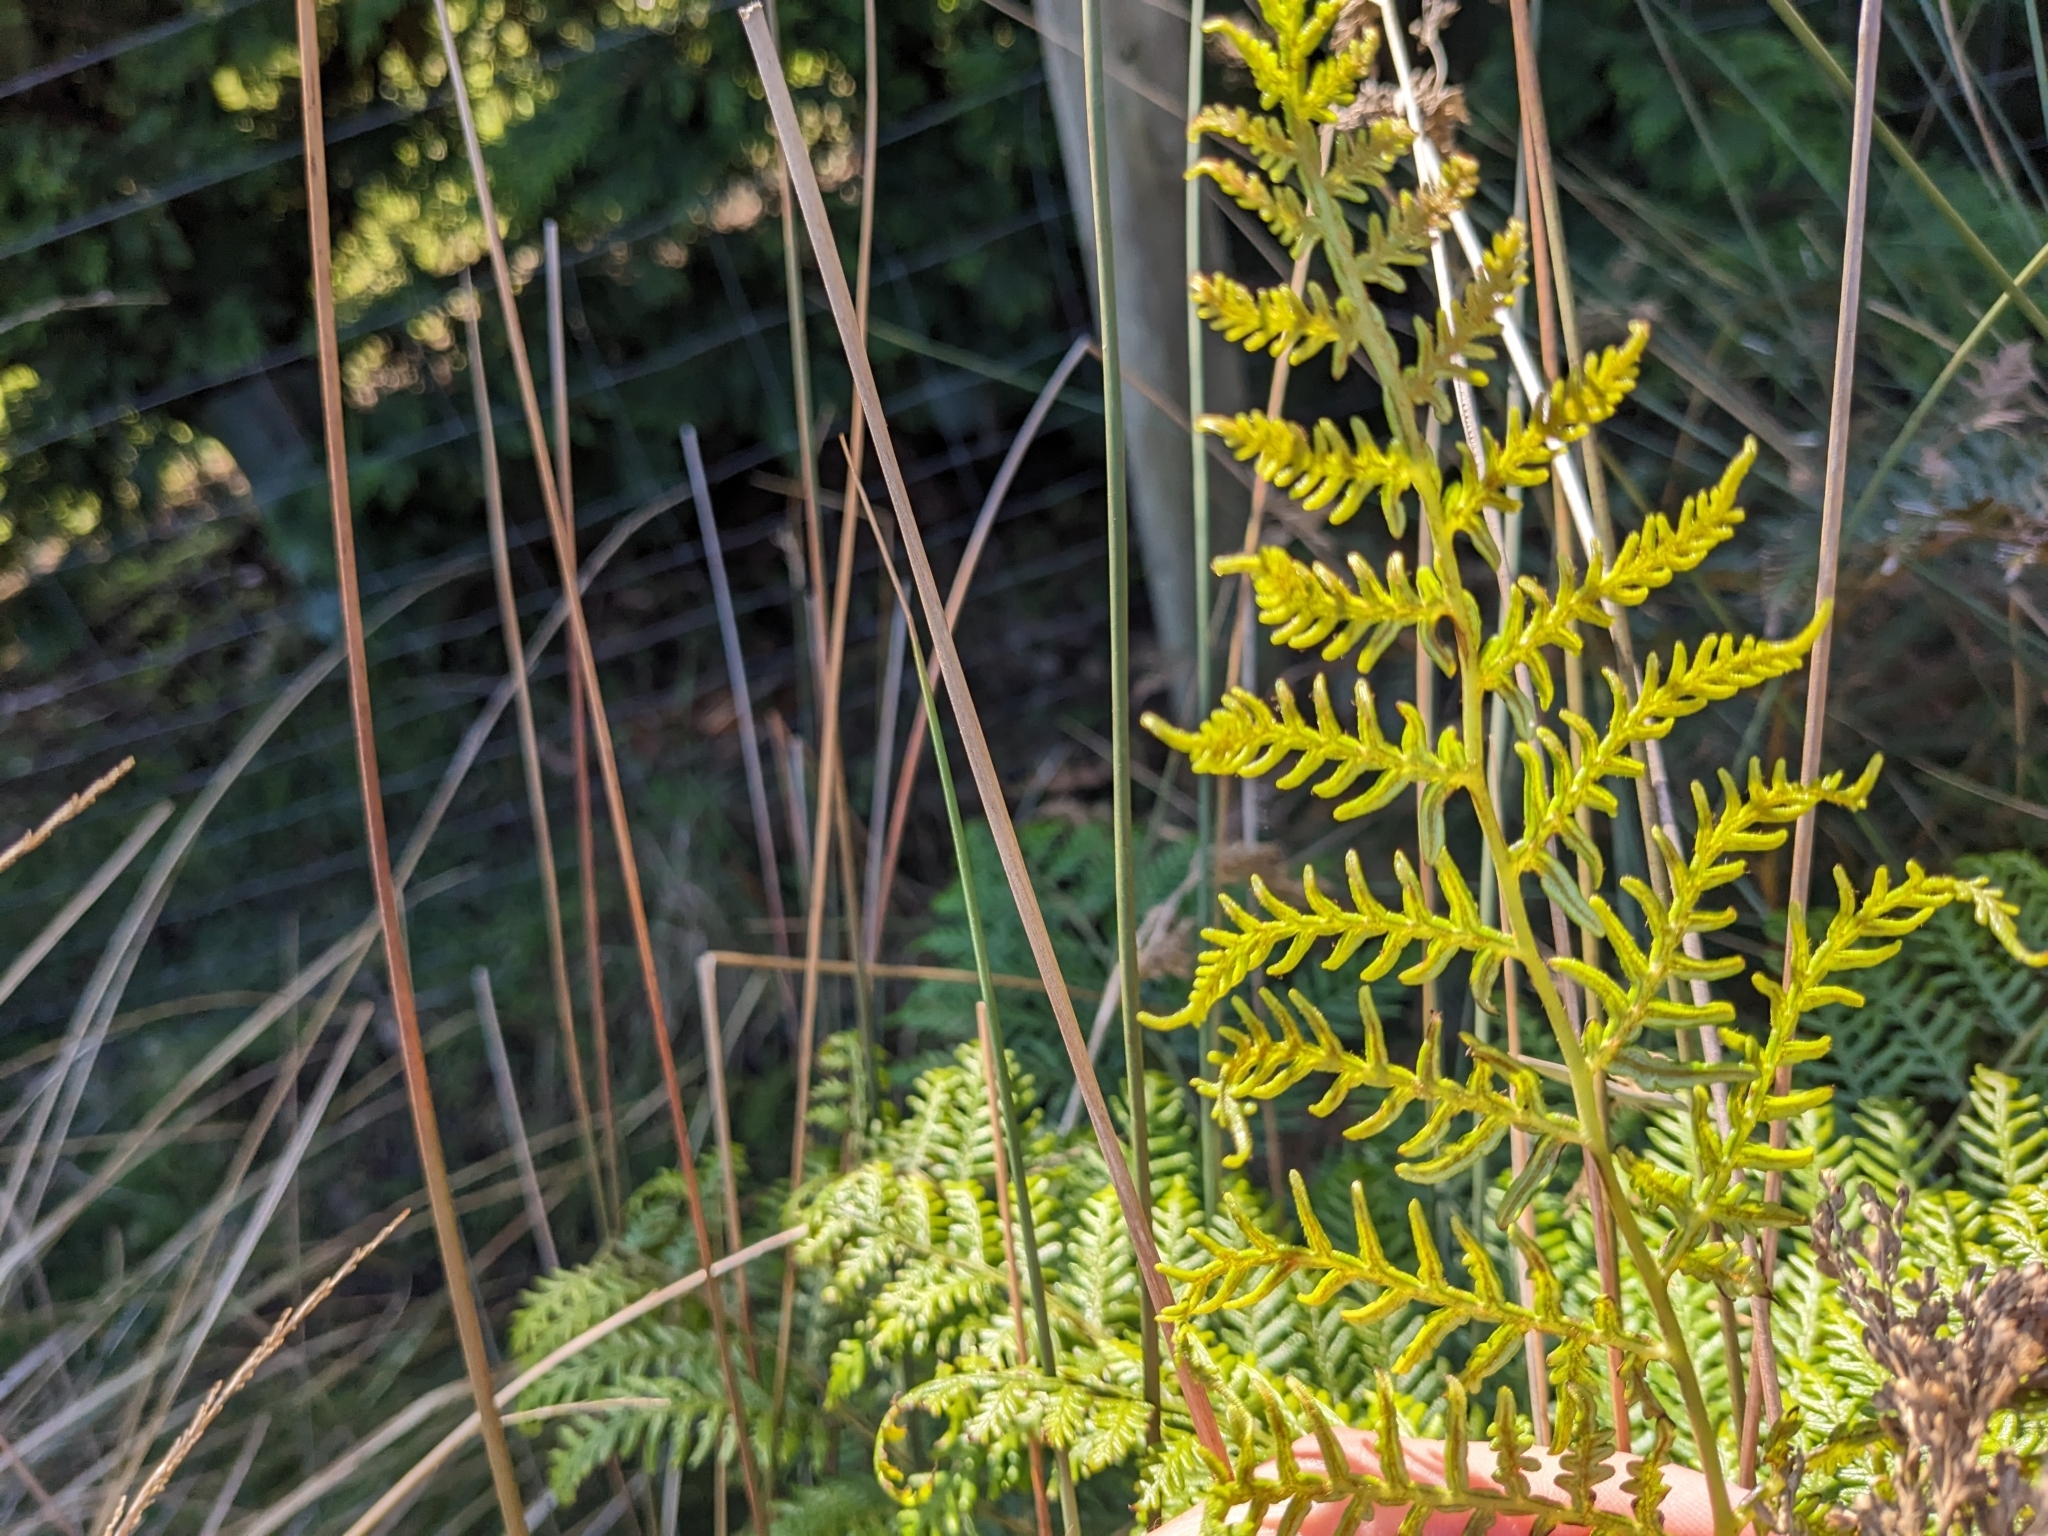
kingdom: Plantae
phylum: Tracheophyta
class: Polypodiopsida
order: Polypodiales
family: Dennstaedtiaceae
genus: Pteridium
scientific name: Pteridium esculentum
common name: Bracken fern
